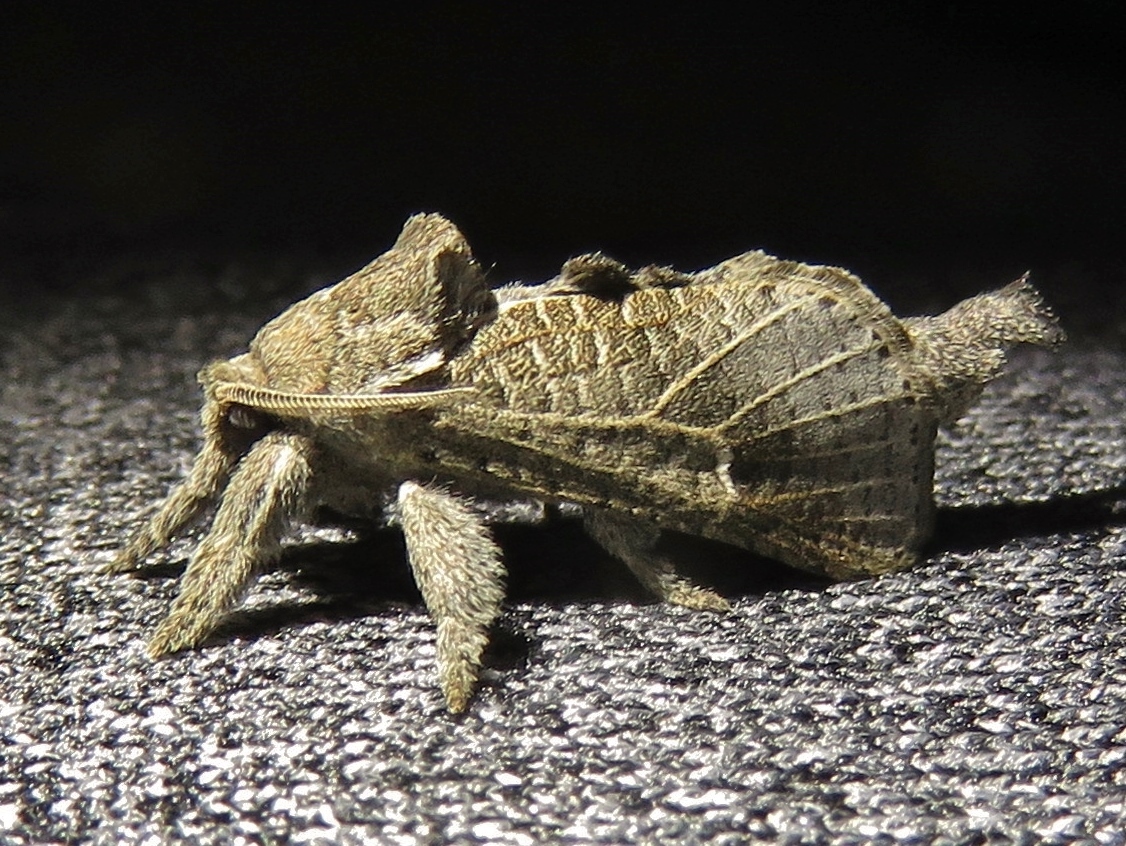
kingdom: Animalia
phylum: Arthropoda
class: Insecta
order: Lepidoptera
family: Cossidae
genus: Givira
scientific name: Givira anna
